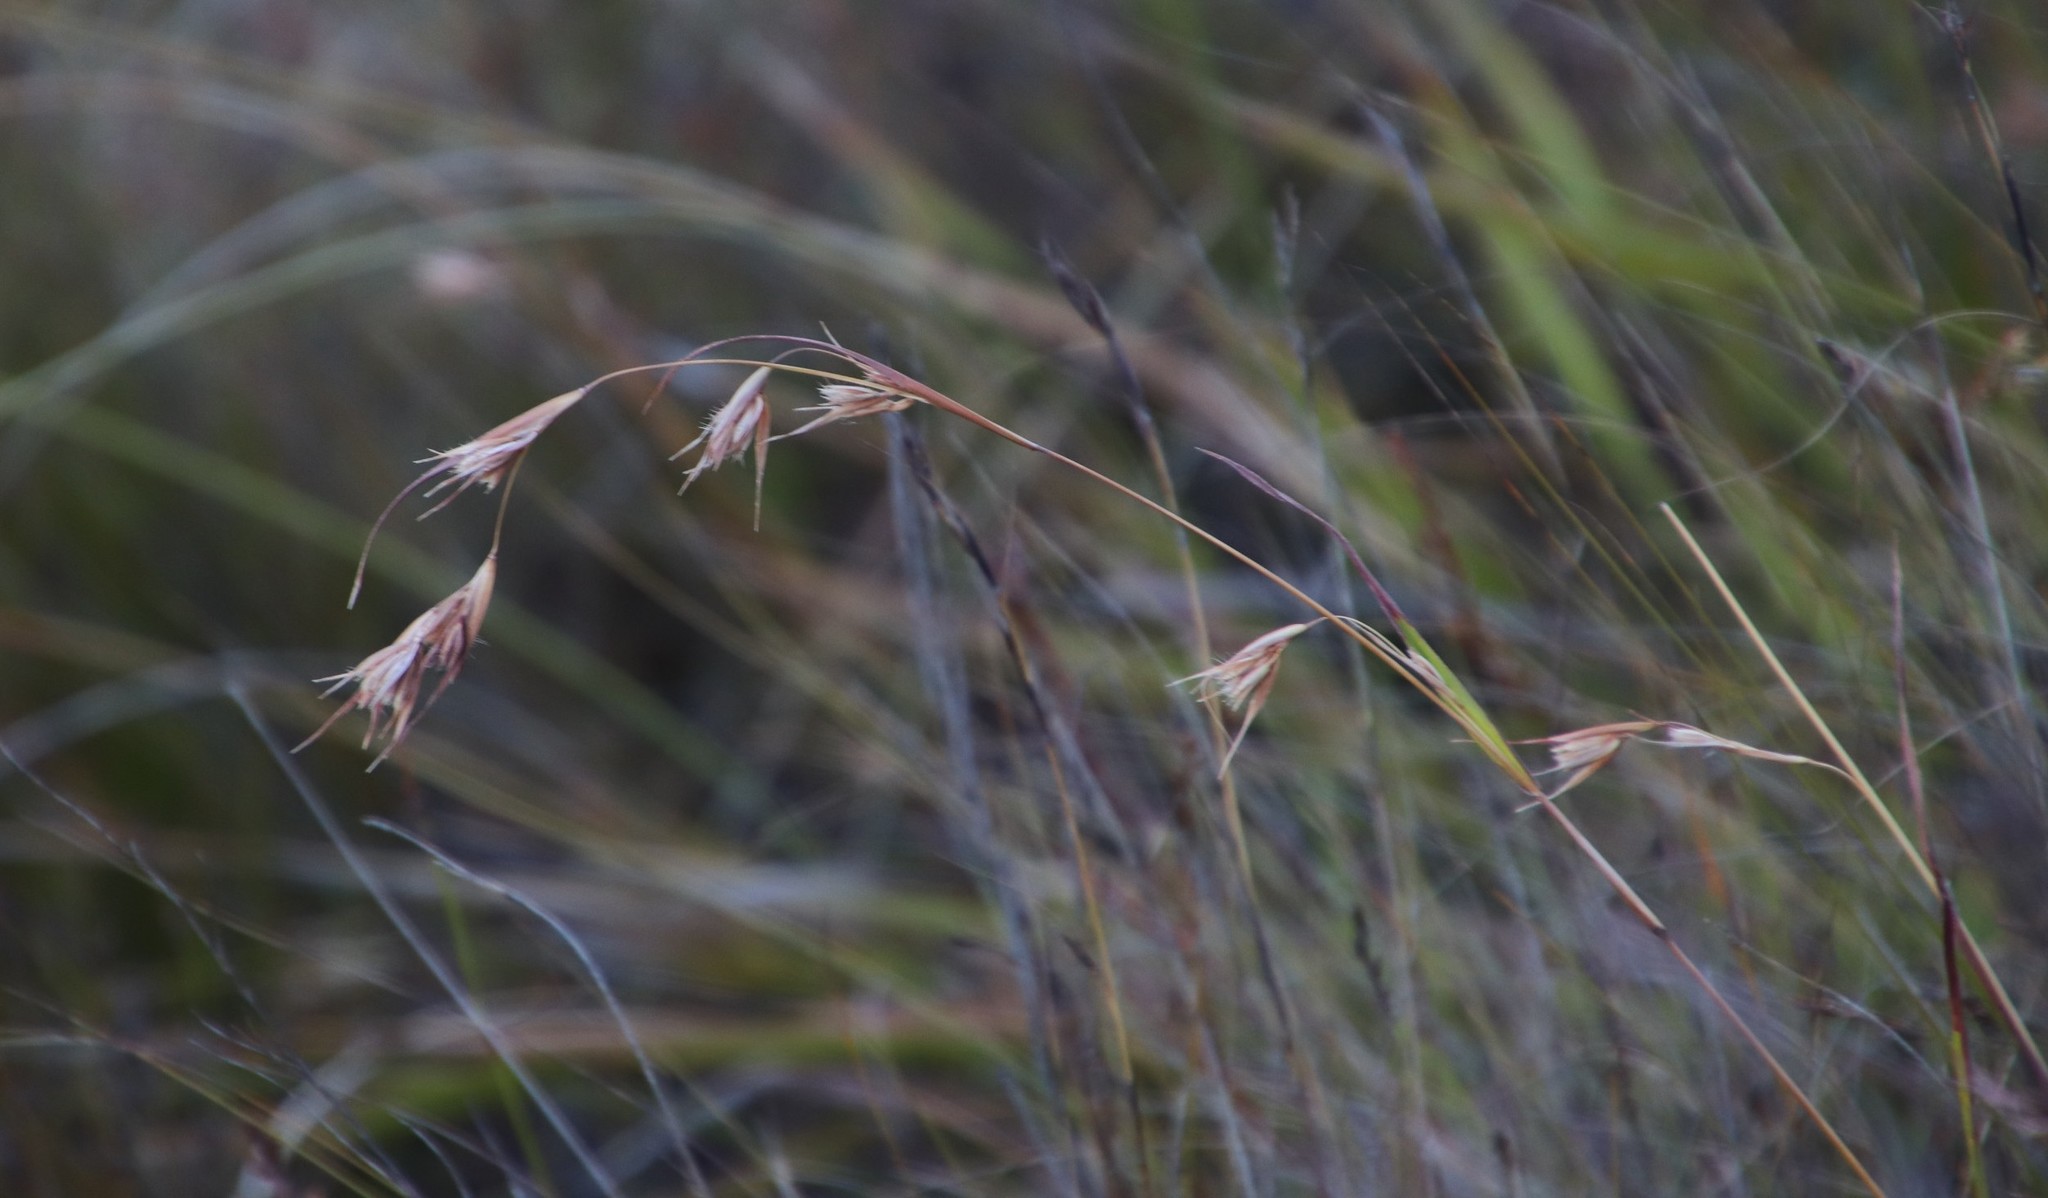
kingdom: Plantae
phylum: Tracheophyta
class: Liliopsida
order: Poales
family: Poaceae
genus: Themeda
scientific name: Themeda triandra
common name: Kangaroo grass
